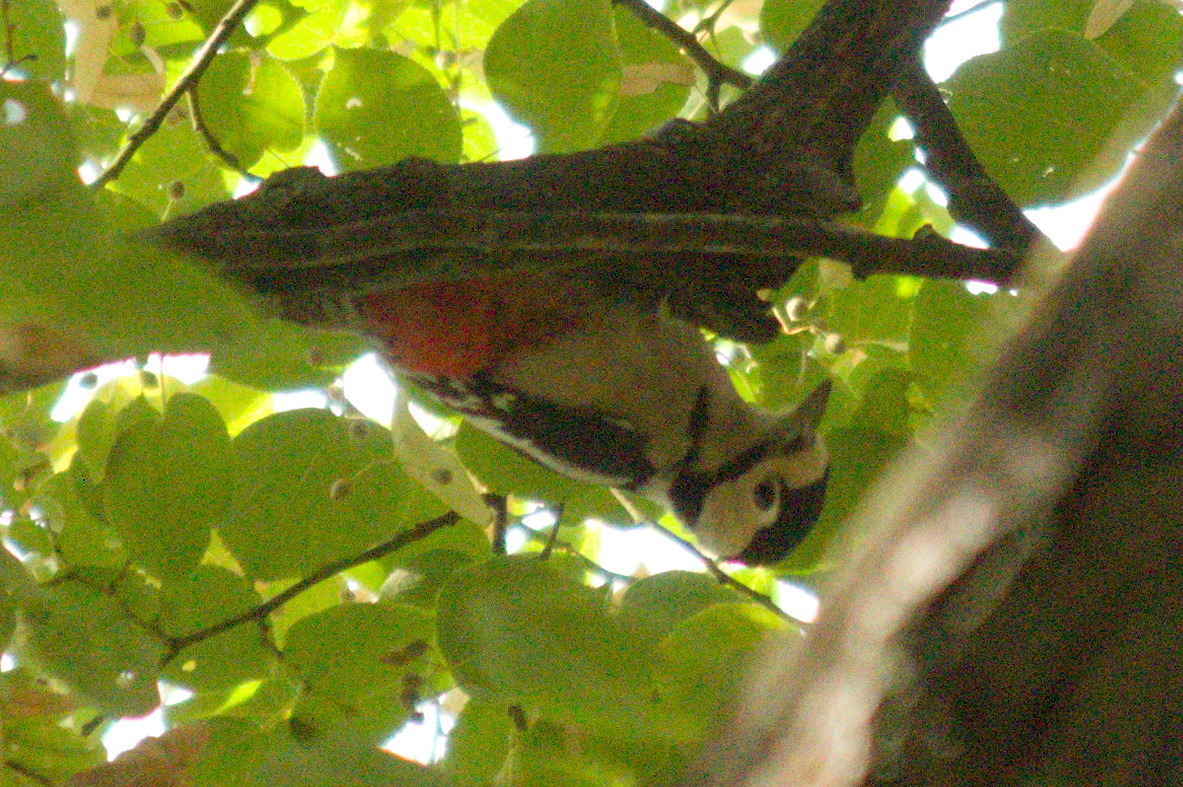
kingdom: Animalia
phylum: Chordata
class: Aves
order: Piciformes
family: Picidae
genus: Dendrocopos
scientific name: Dendrocopos major
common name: Great spotted woodpecker
